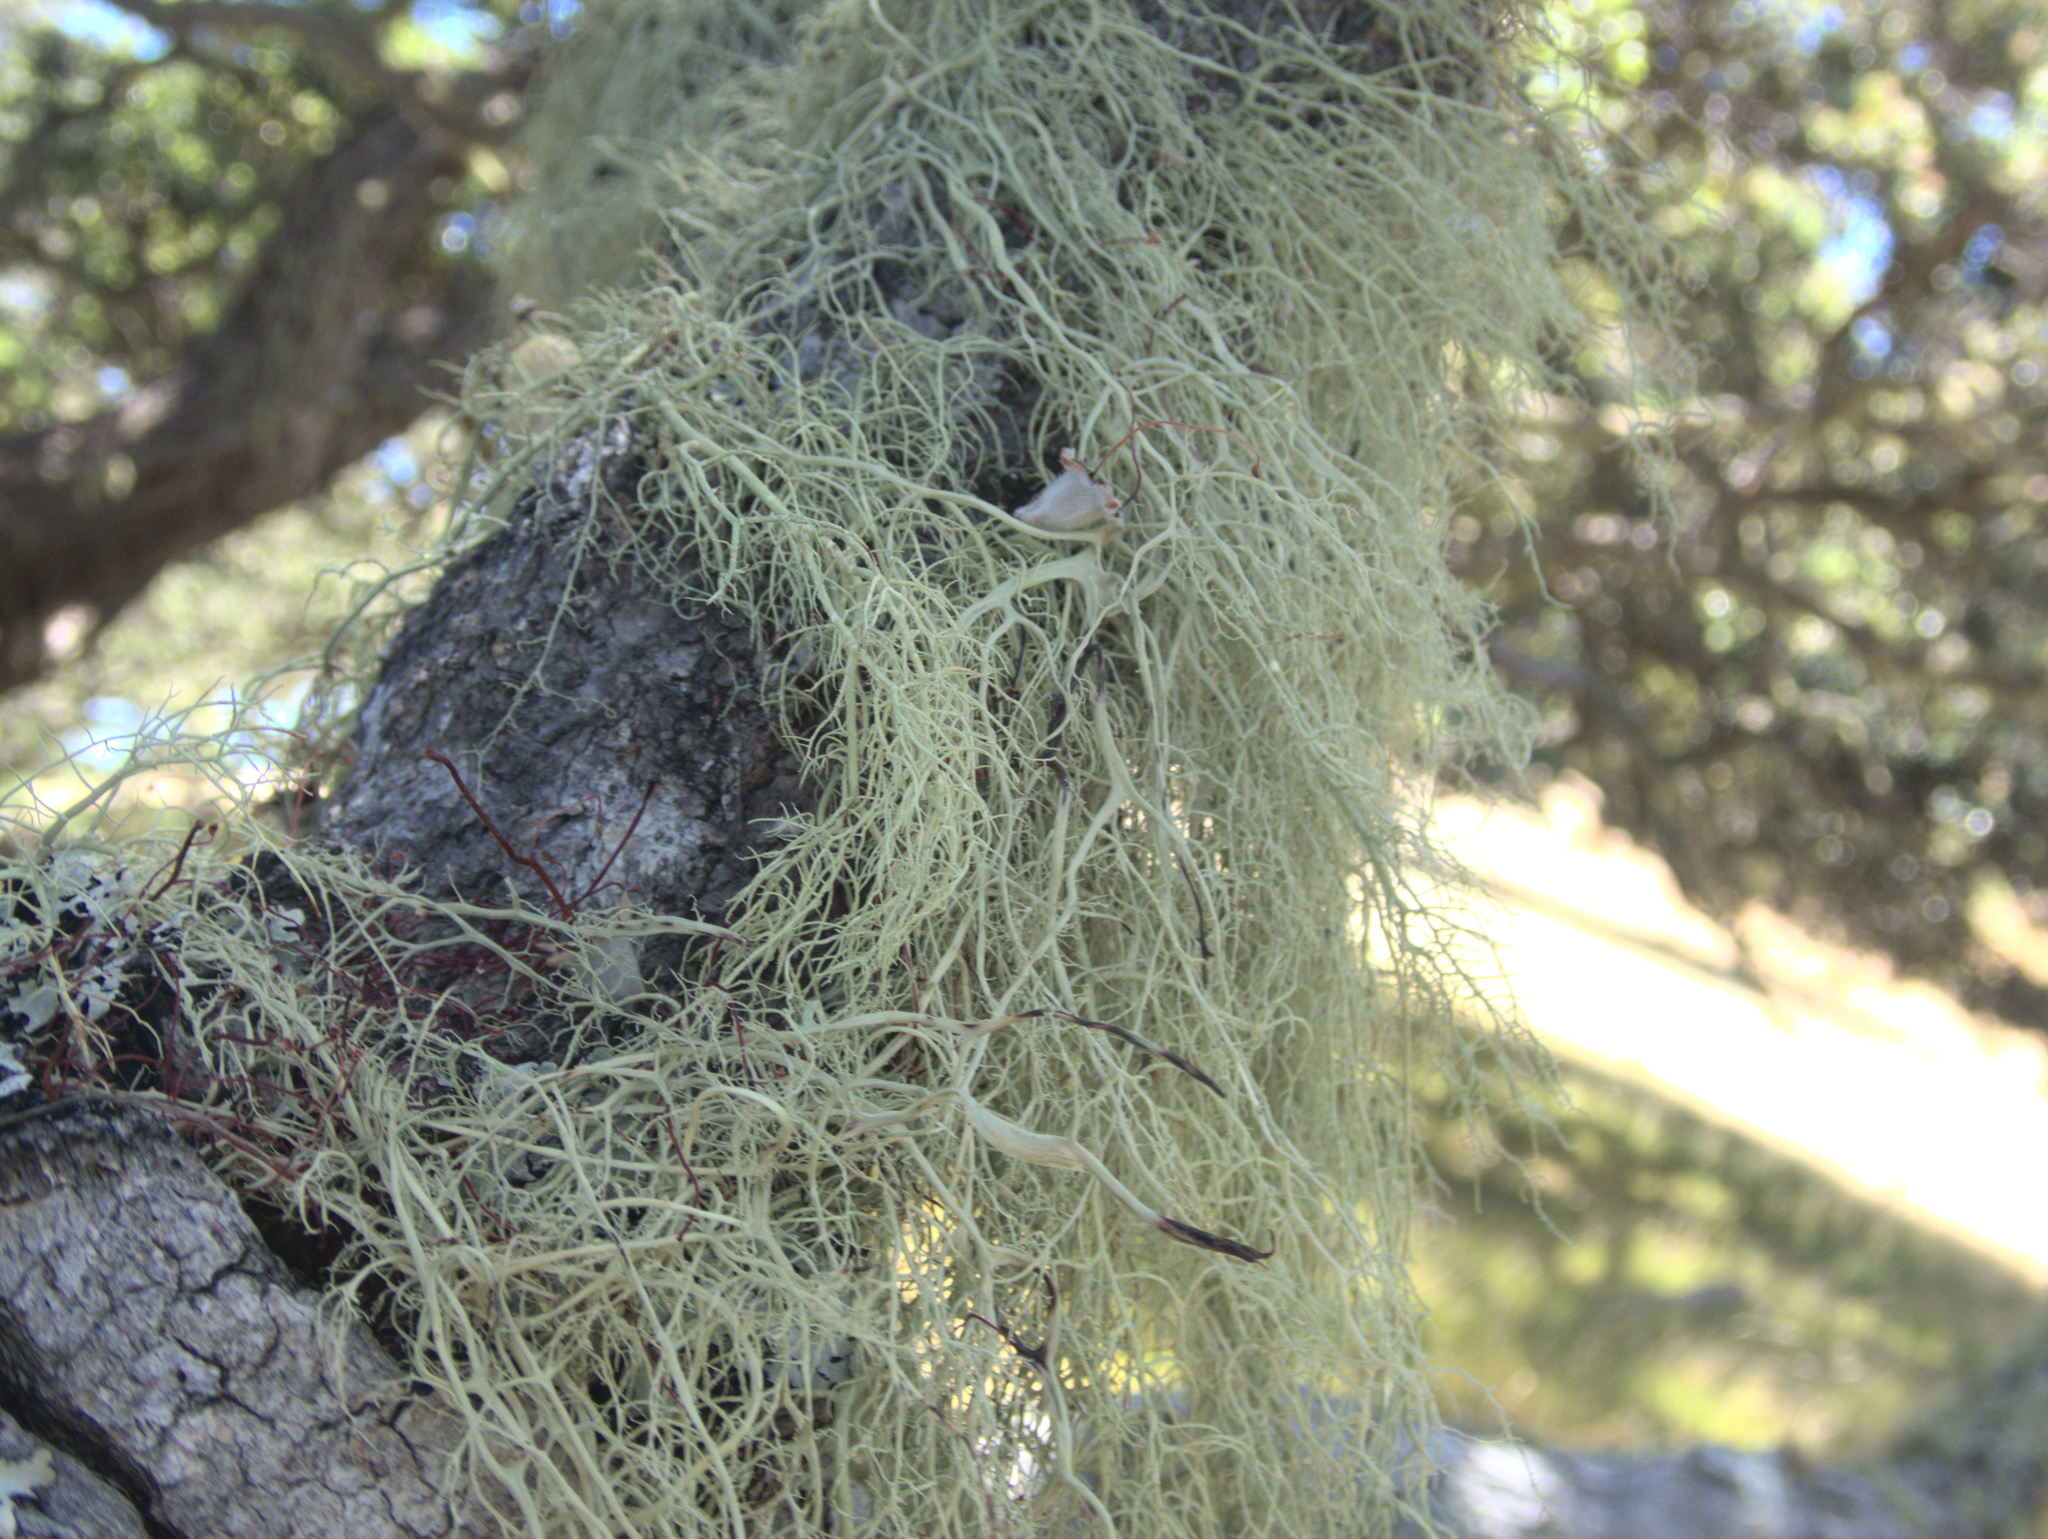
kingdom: Fungi
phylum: Ascomycota
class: Lecanoromycetes
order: Lecanorales
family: Parmeliaceae
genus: Usnea
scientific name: Usnea nidifica
